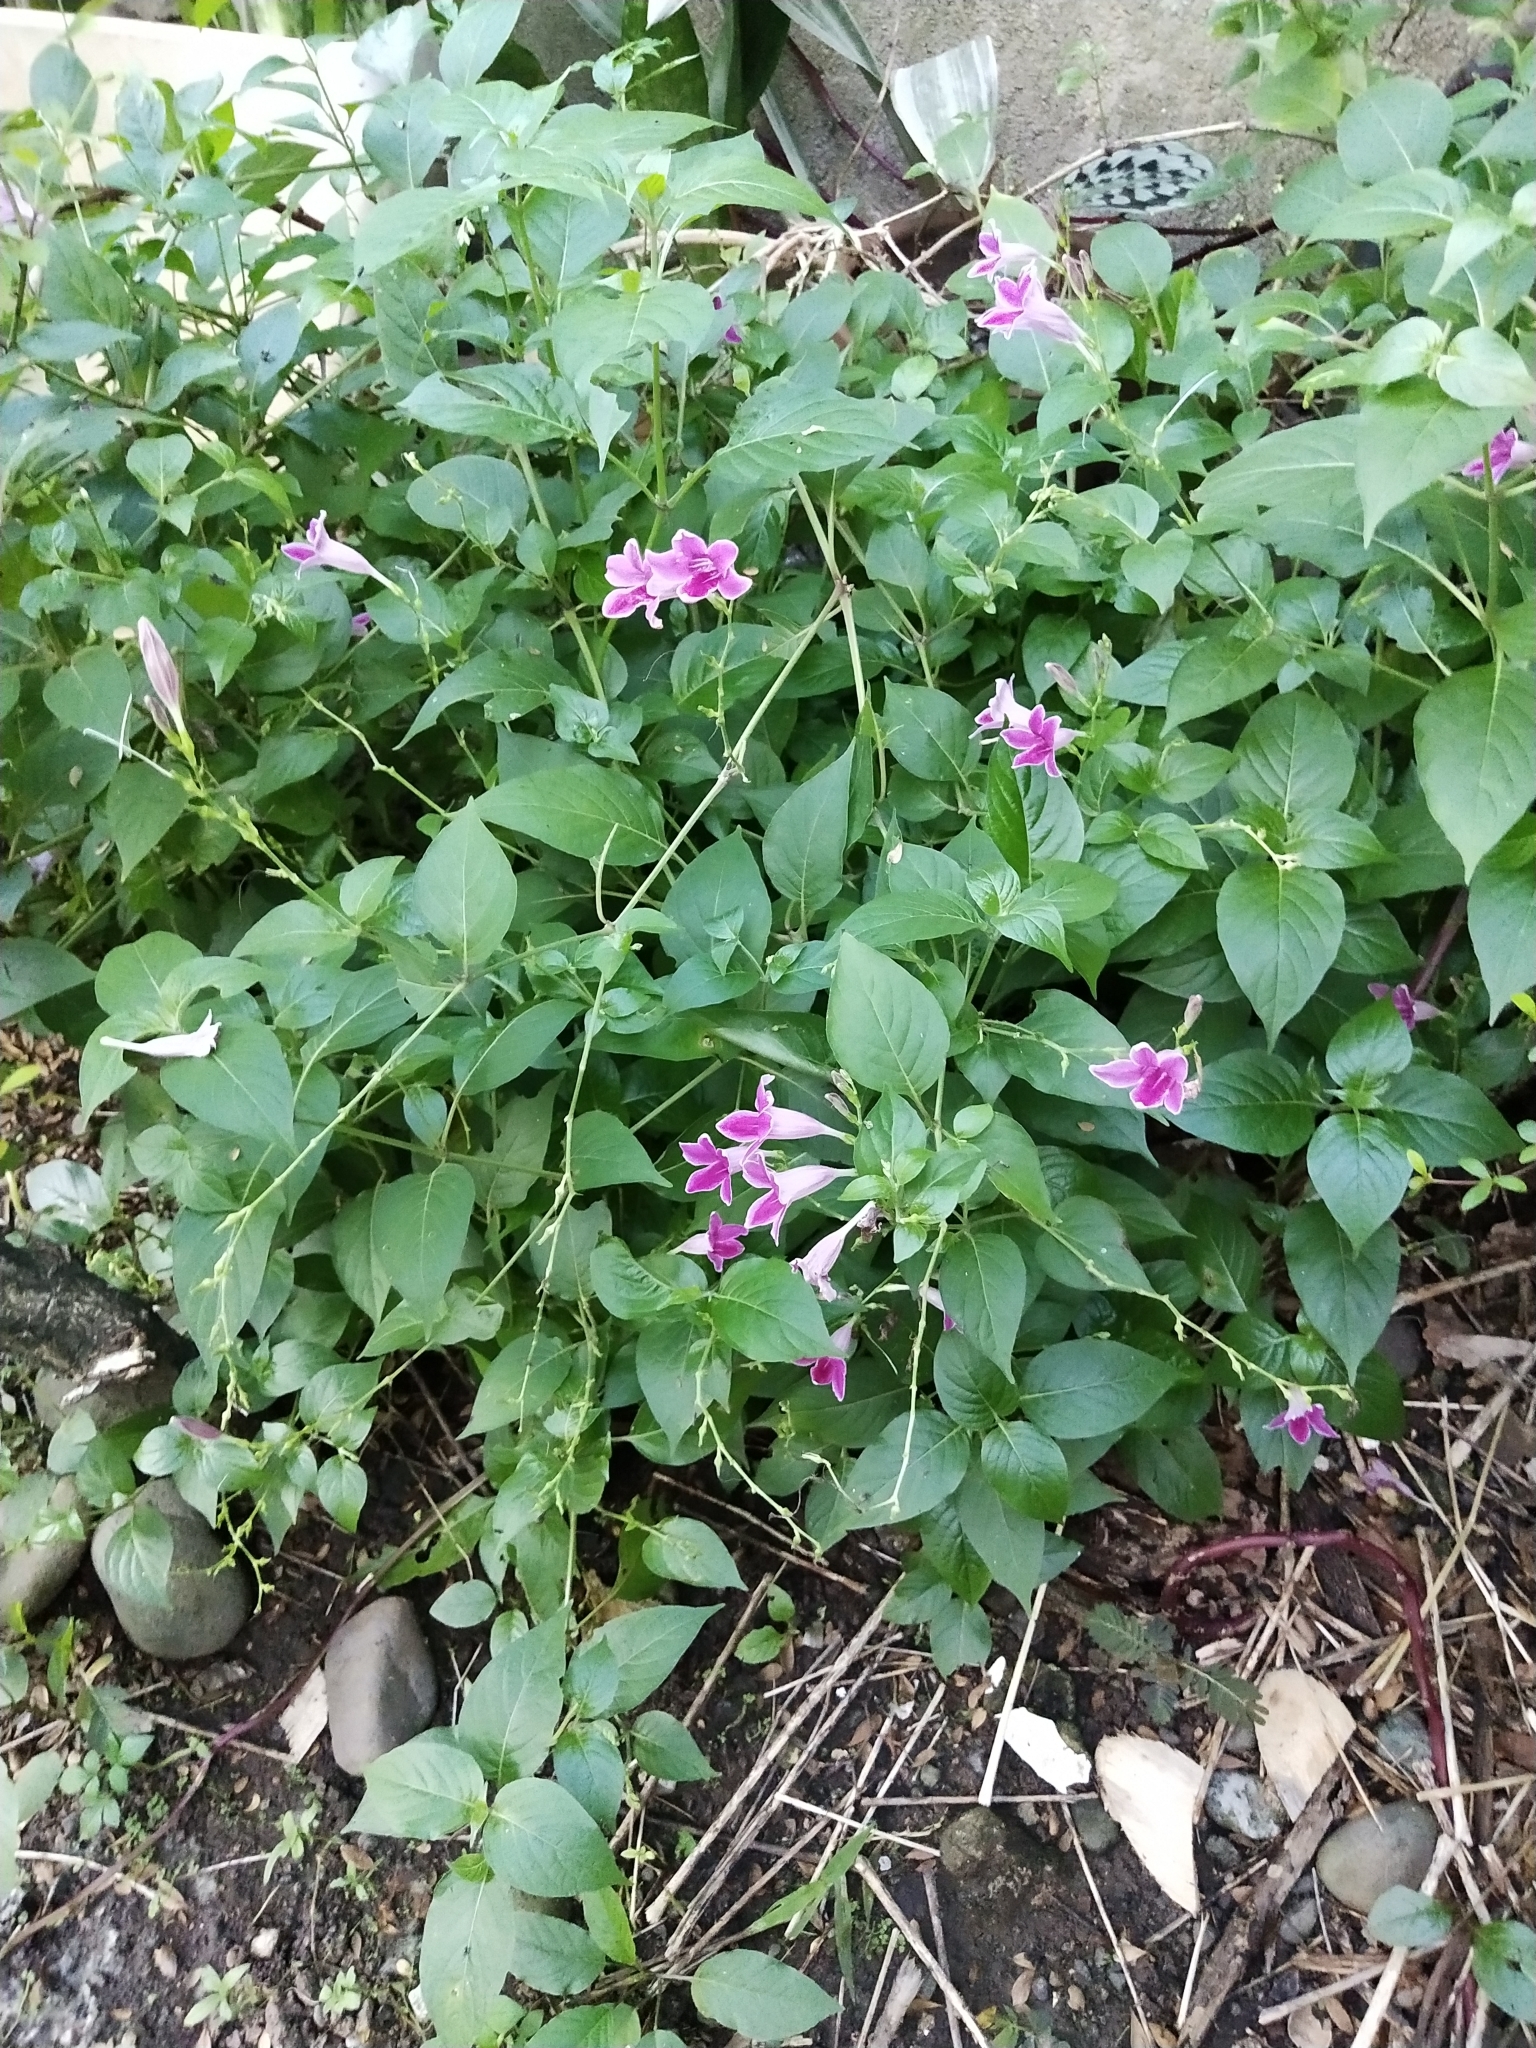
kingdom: Plantae
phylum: Tracheophyta
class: Magnoliopsida
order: Lamiales
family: Acanthaceae
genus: Asystasia
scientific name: Asystasia nemorum
